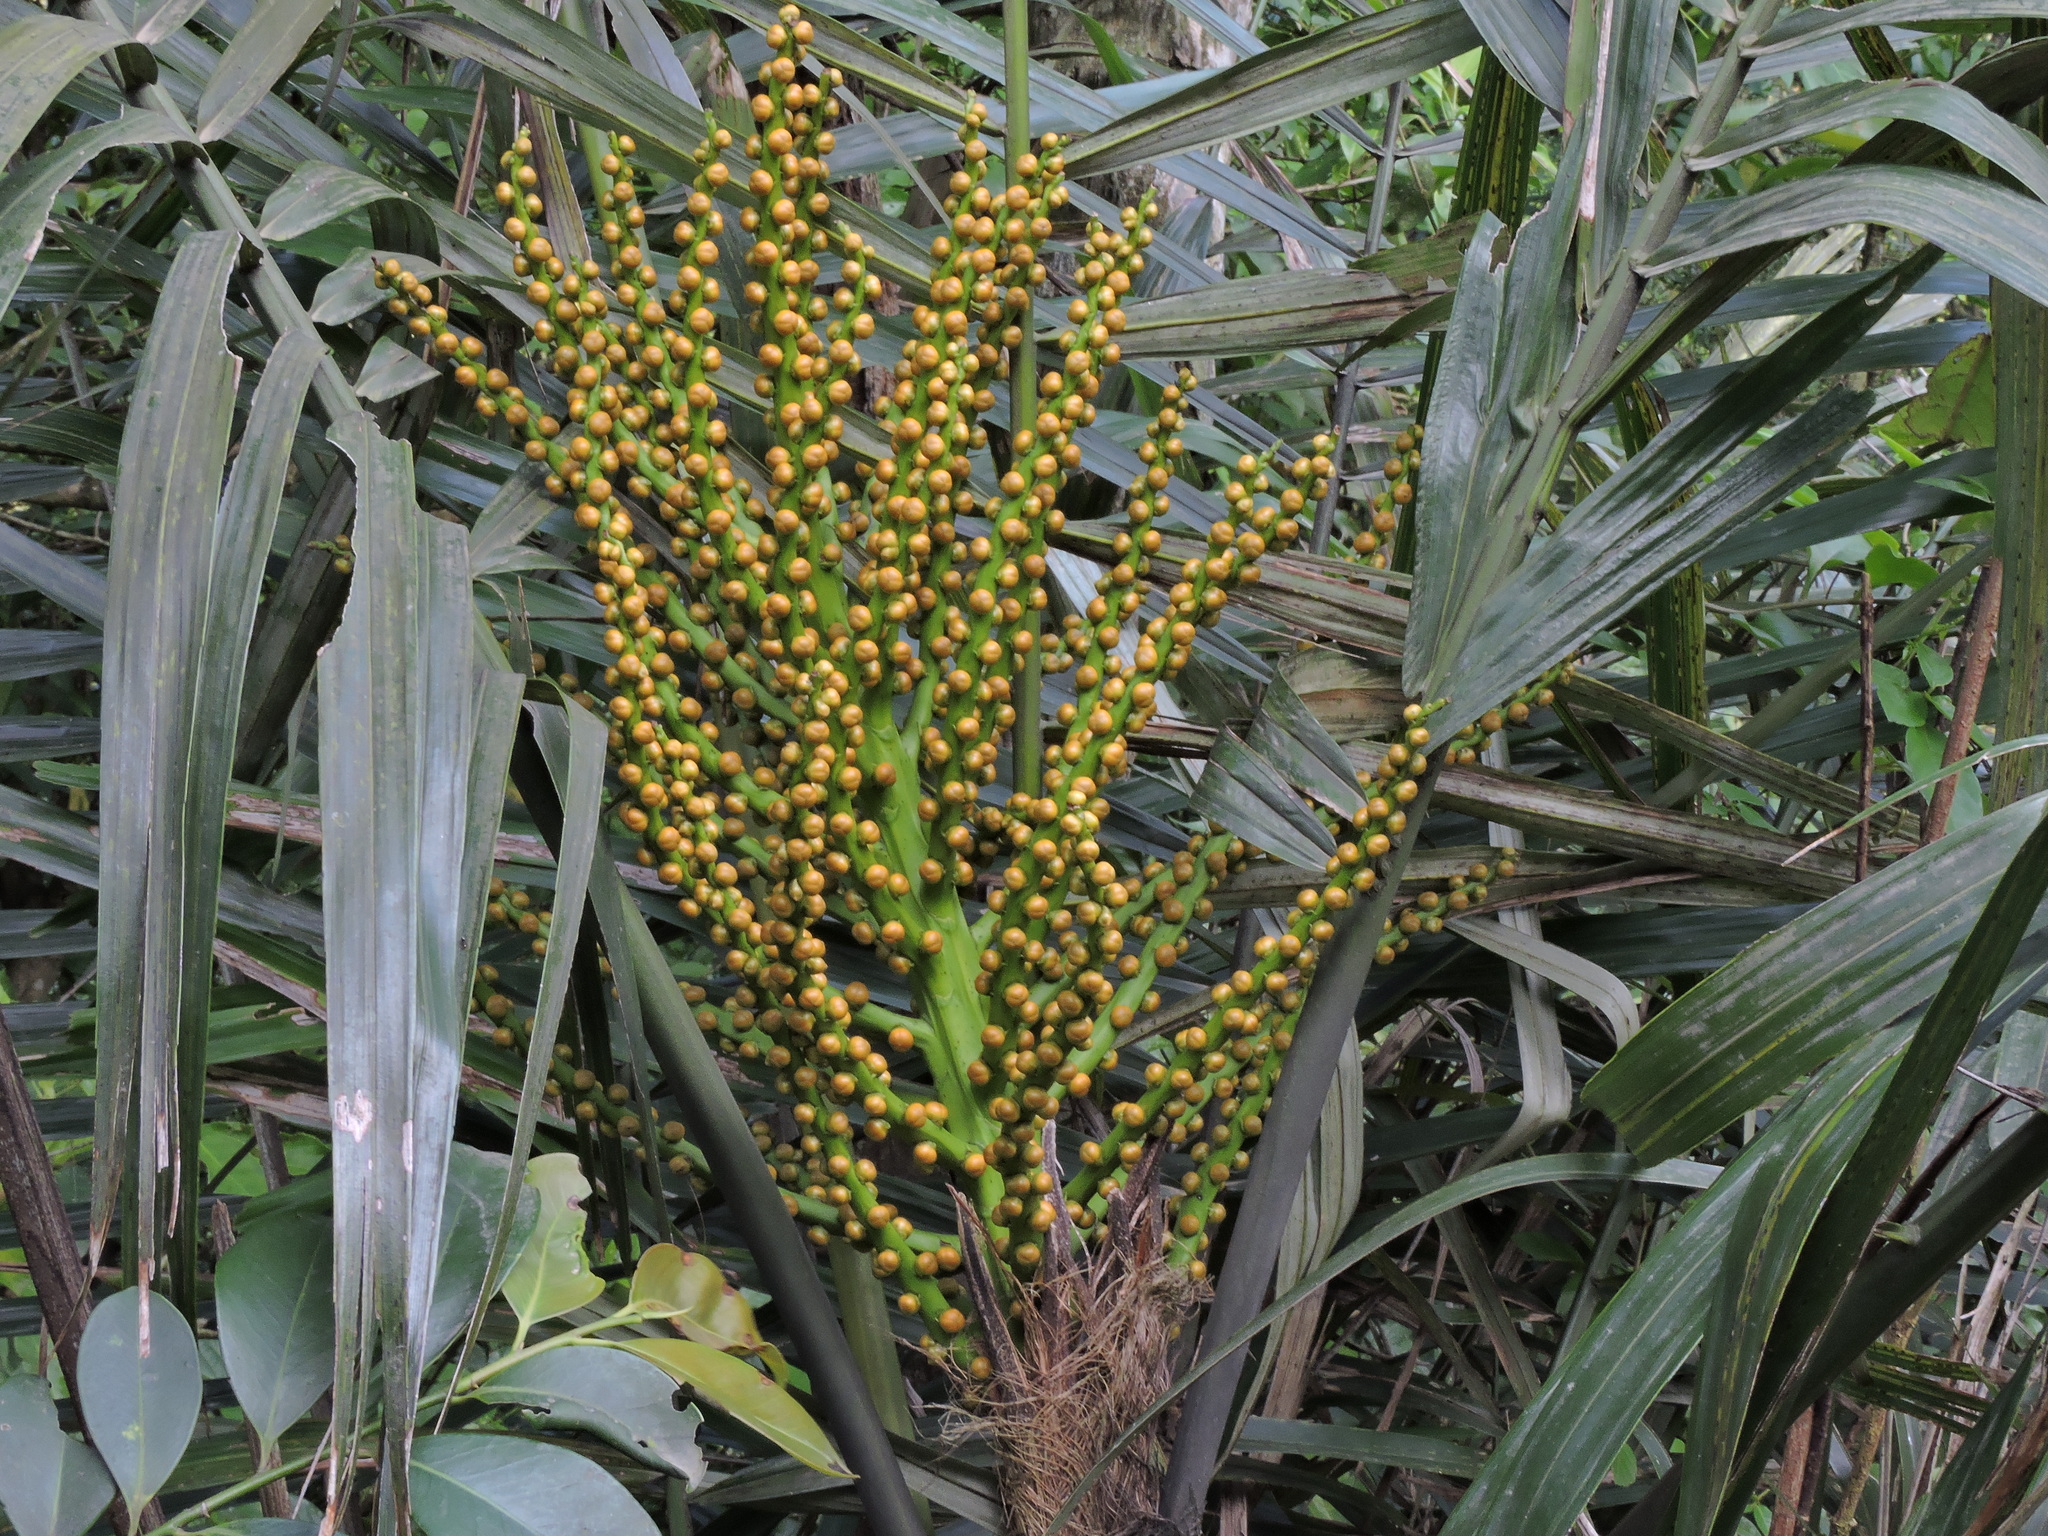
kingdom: Plantae
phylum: Tracheophyta
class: Liliopsida
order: Arecales
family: Arecaceae
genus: Arenga
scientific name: Arenga engleri
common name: Formosan sugar palm
